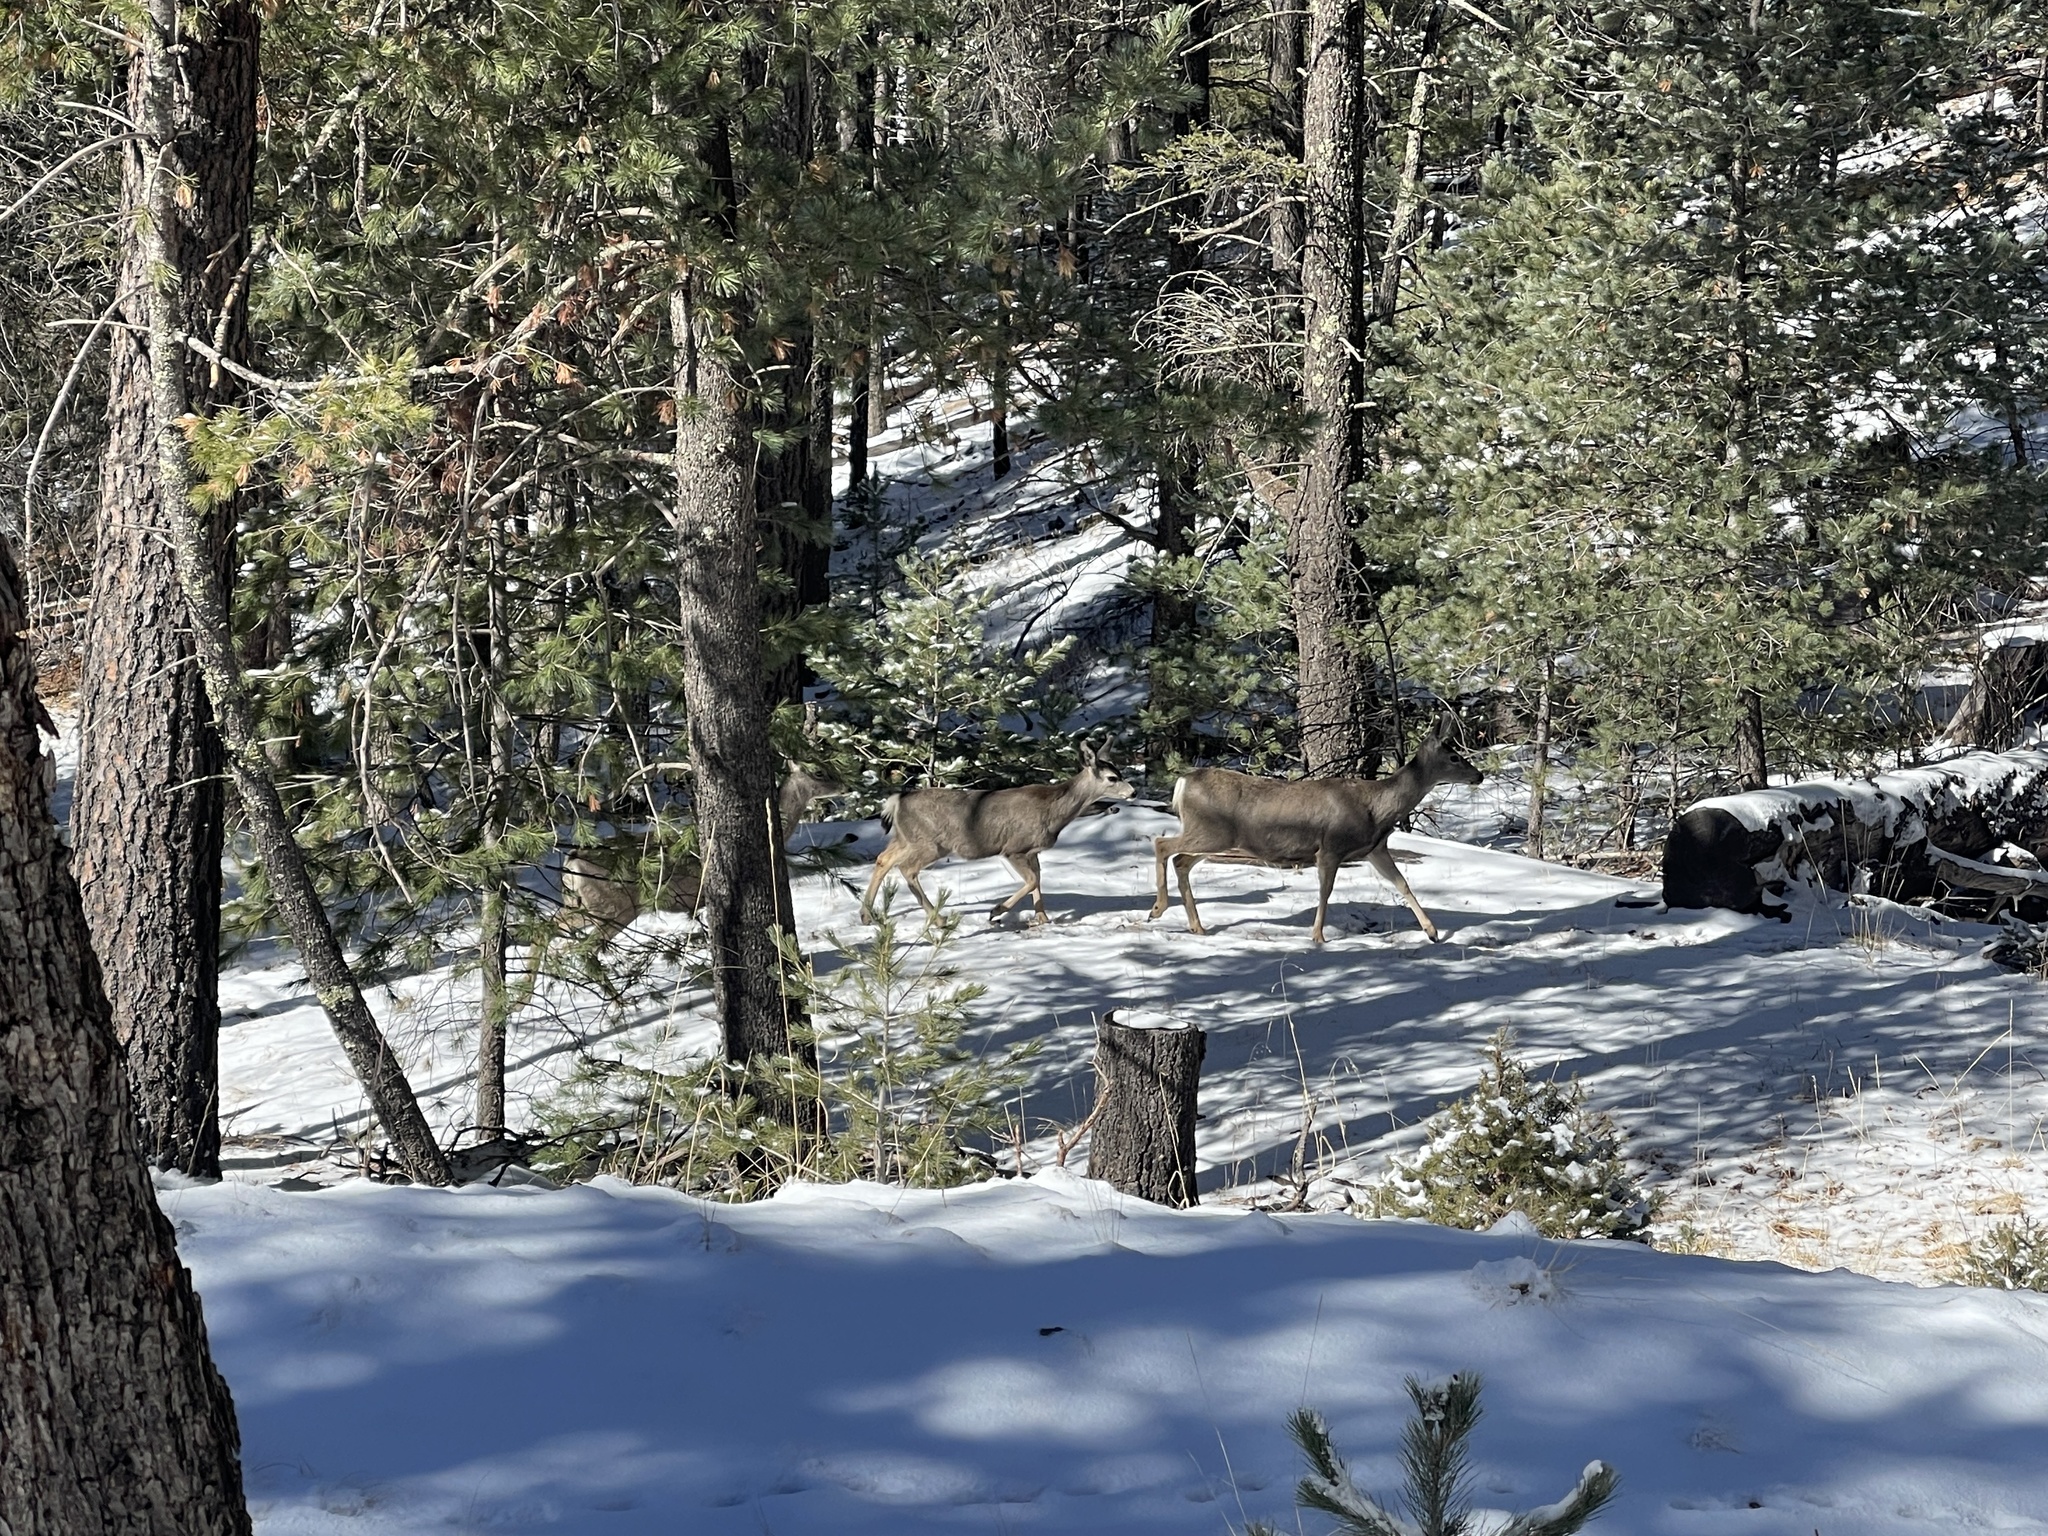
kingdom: Animalia
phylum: Chordata
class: Mammalia
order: Artiodactyla
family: Cervidae
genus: Odocoileus
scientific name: Odocoileus hemionus
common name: Mule deer
